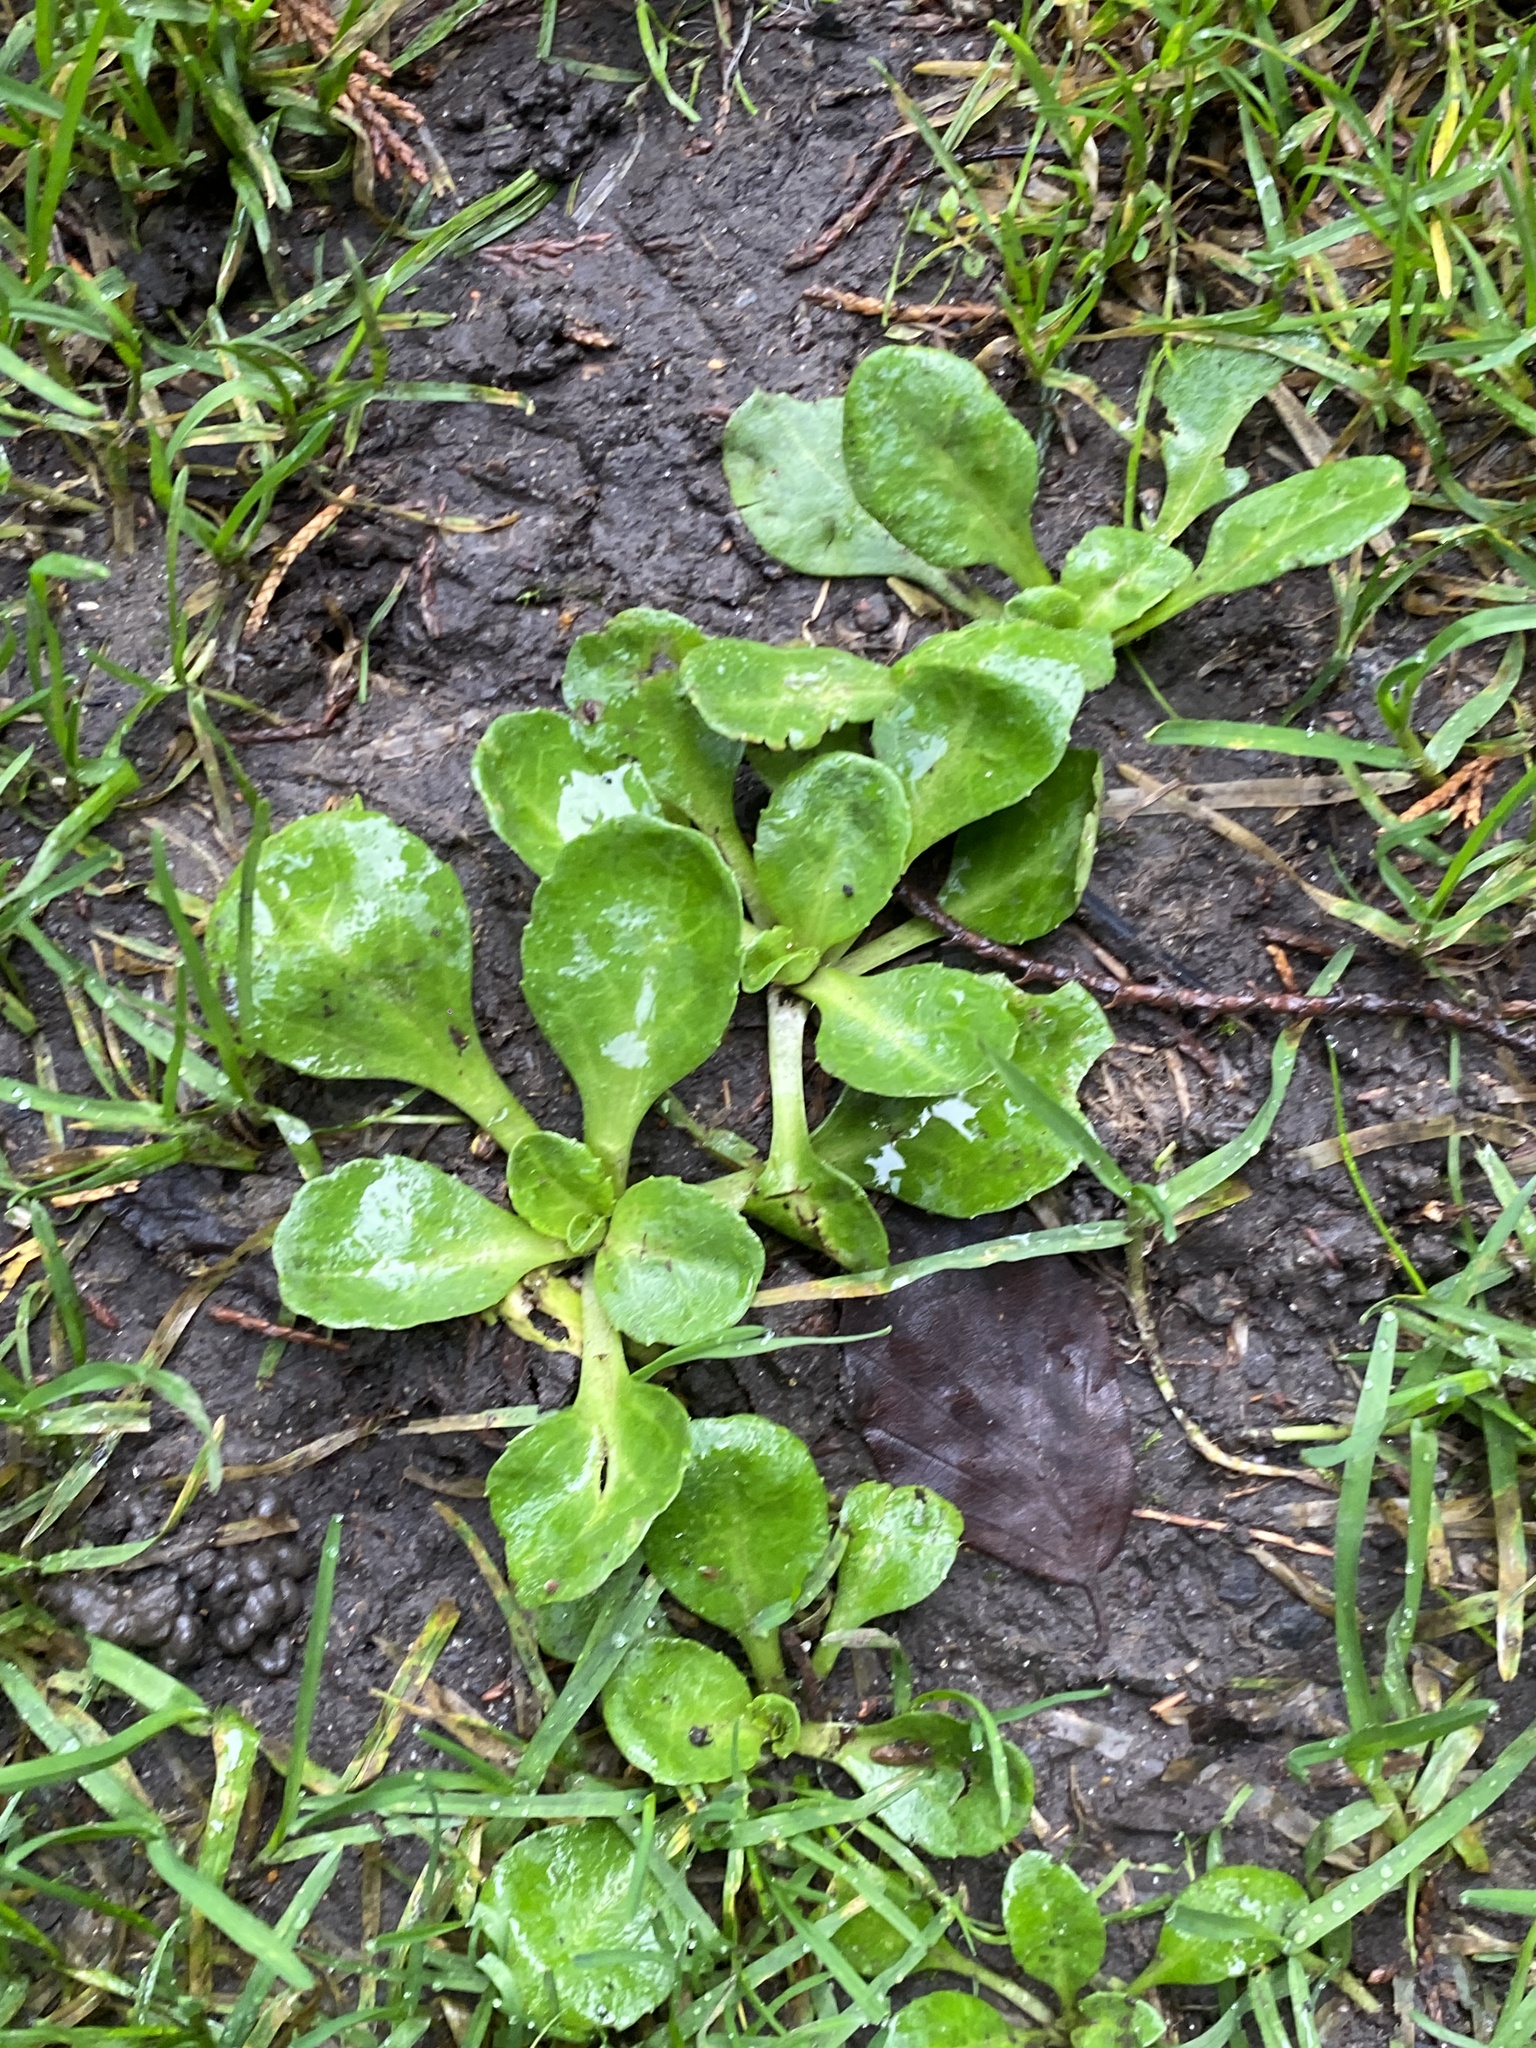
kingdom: Plantae
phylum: Tracheophyta
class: Magnoliopsida
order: Asterales
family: Asteraceae
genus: Bellis
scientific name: Bellis perennis
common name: Lawndaisy
